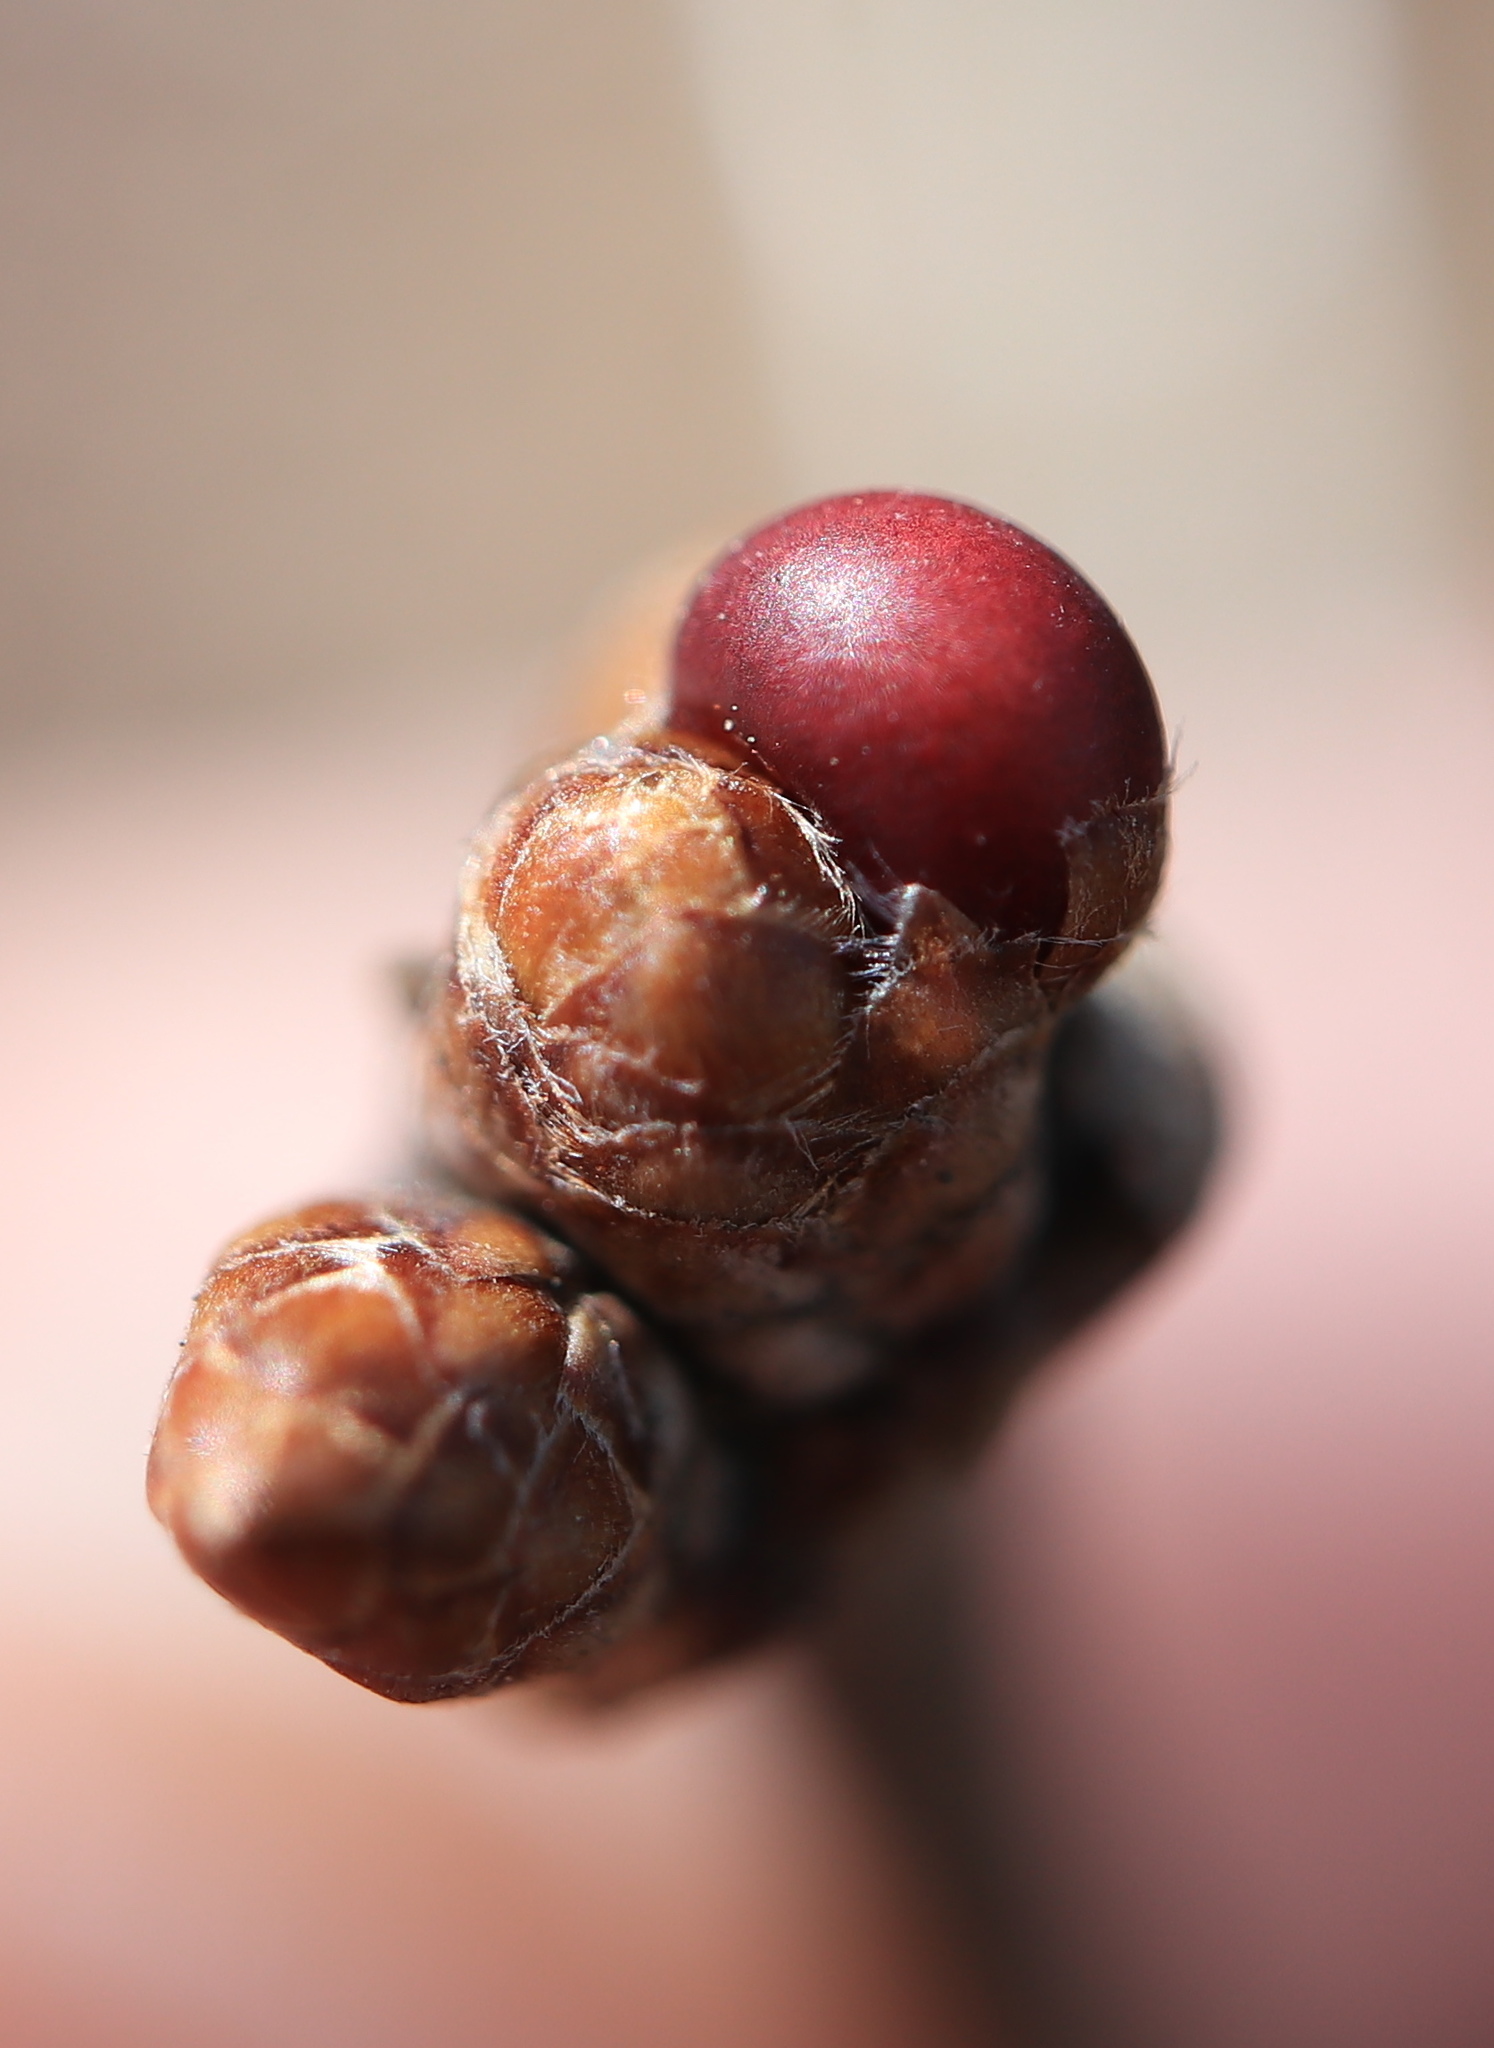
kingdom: Animalia
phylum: Arthropoda
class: Insecta
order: Hymenoptera
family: Cynipidae
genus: Neuroterus
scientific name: Neuroterus
